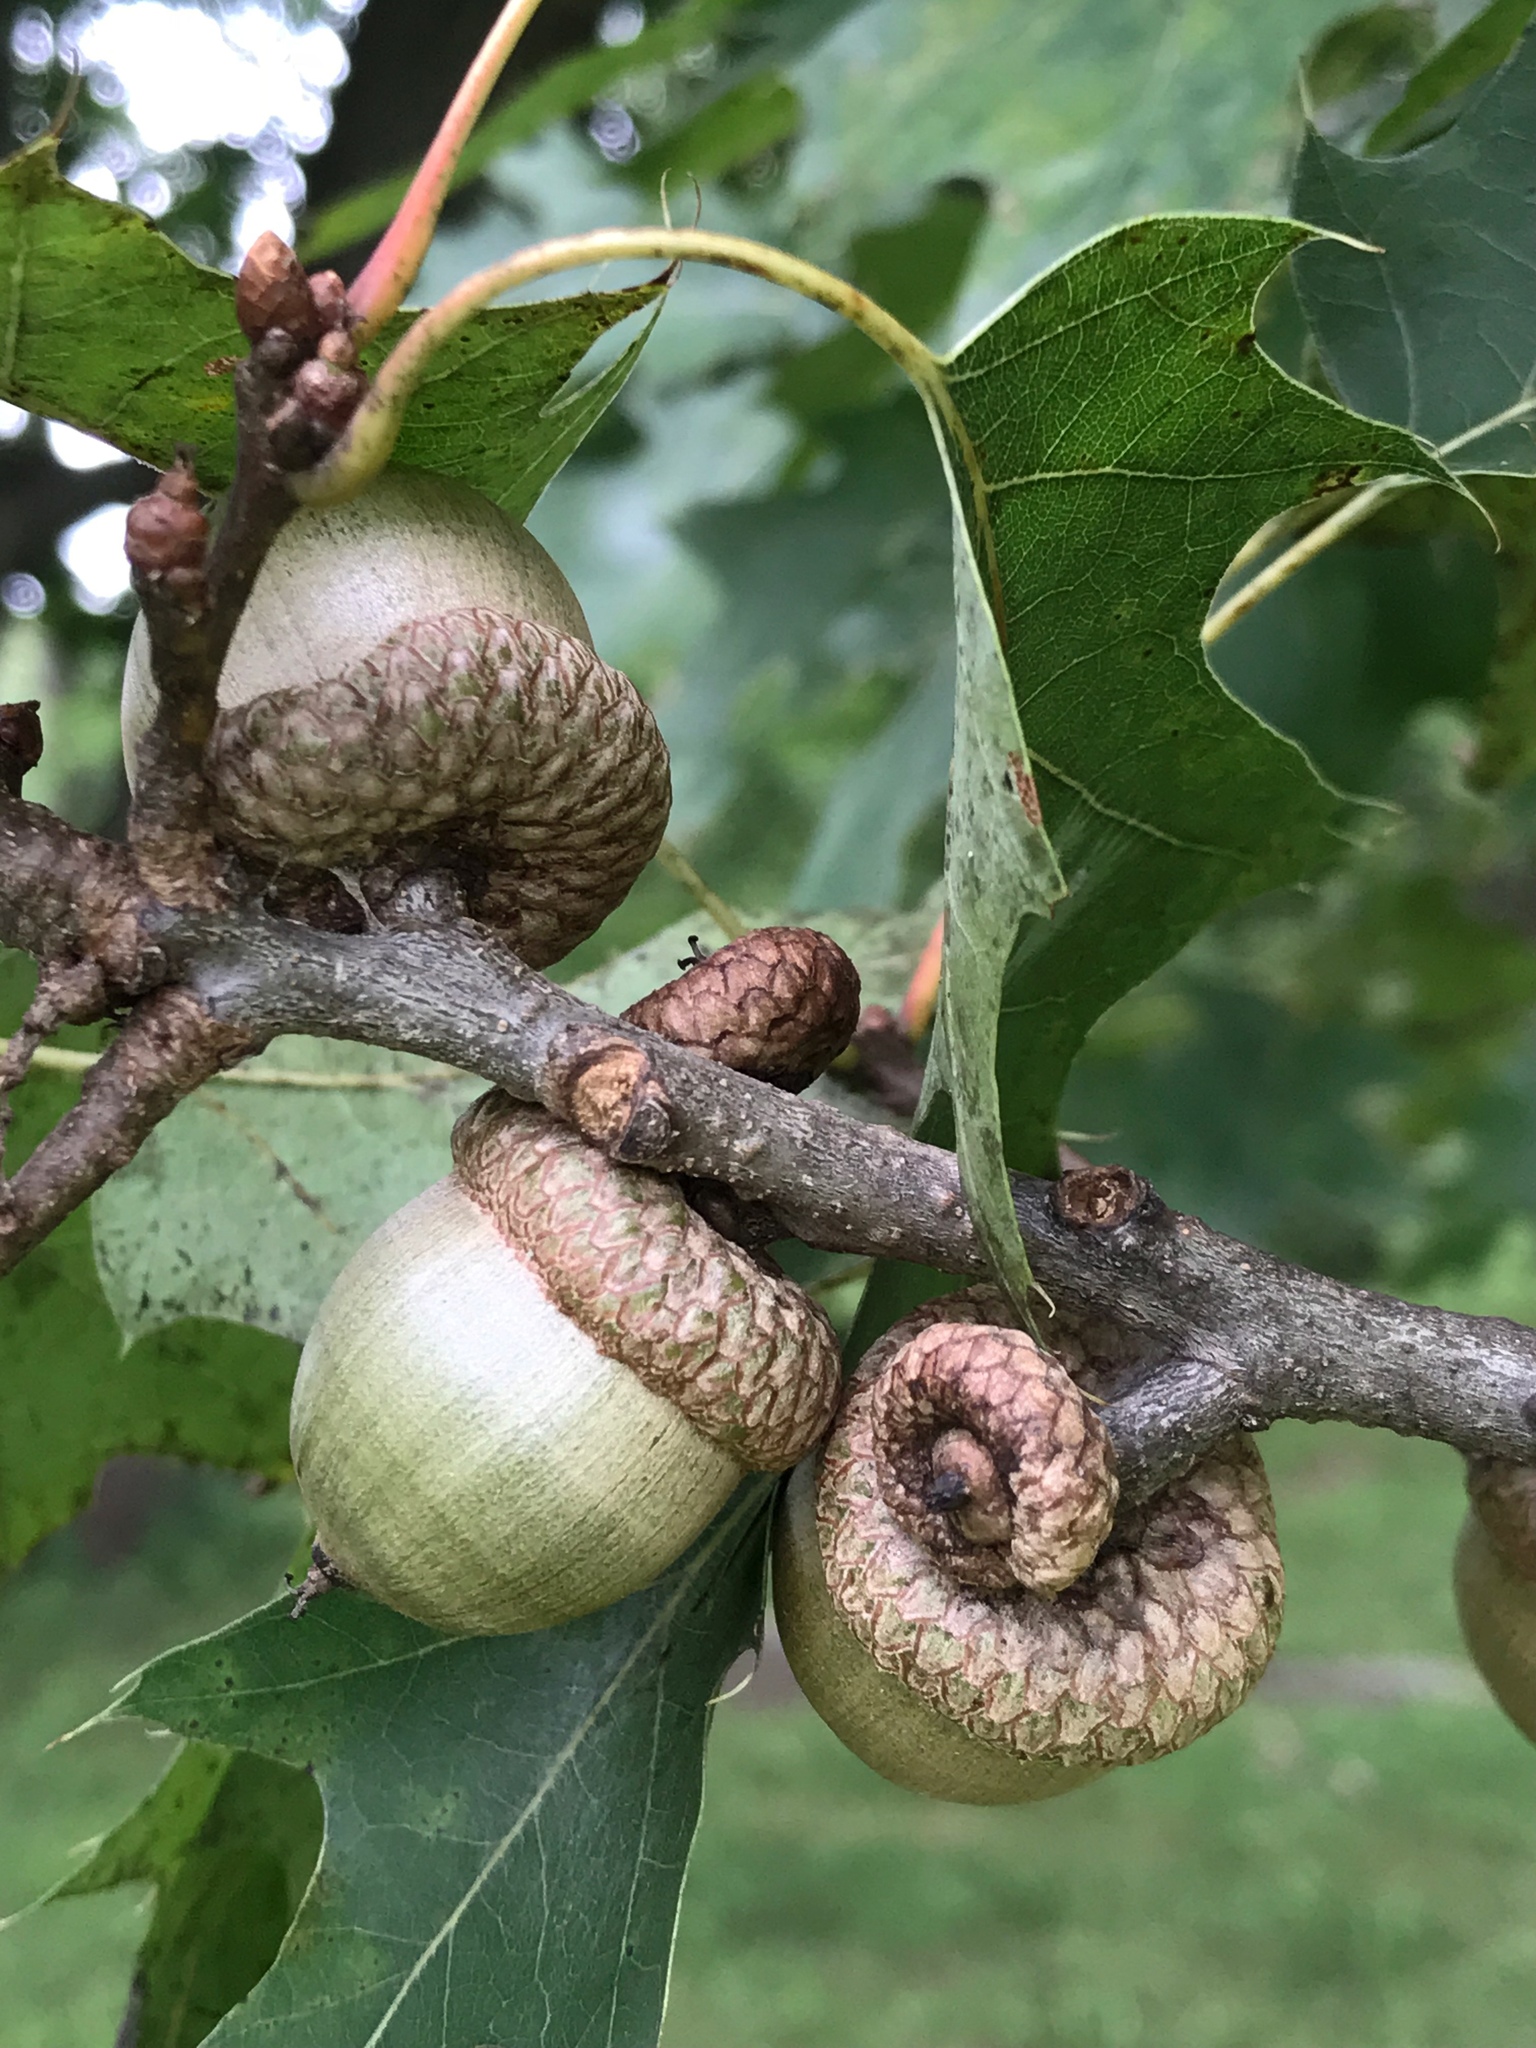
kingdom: Plantae
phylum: Tracheophyta
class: Magnoliopsida
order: Fagales
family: Fagaceae
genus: Quercus
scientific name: Quercus rubra
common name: Red oak
